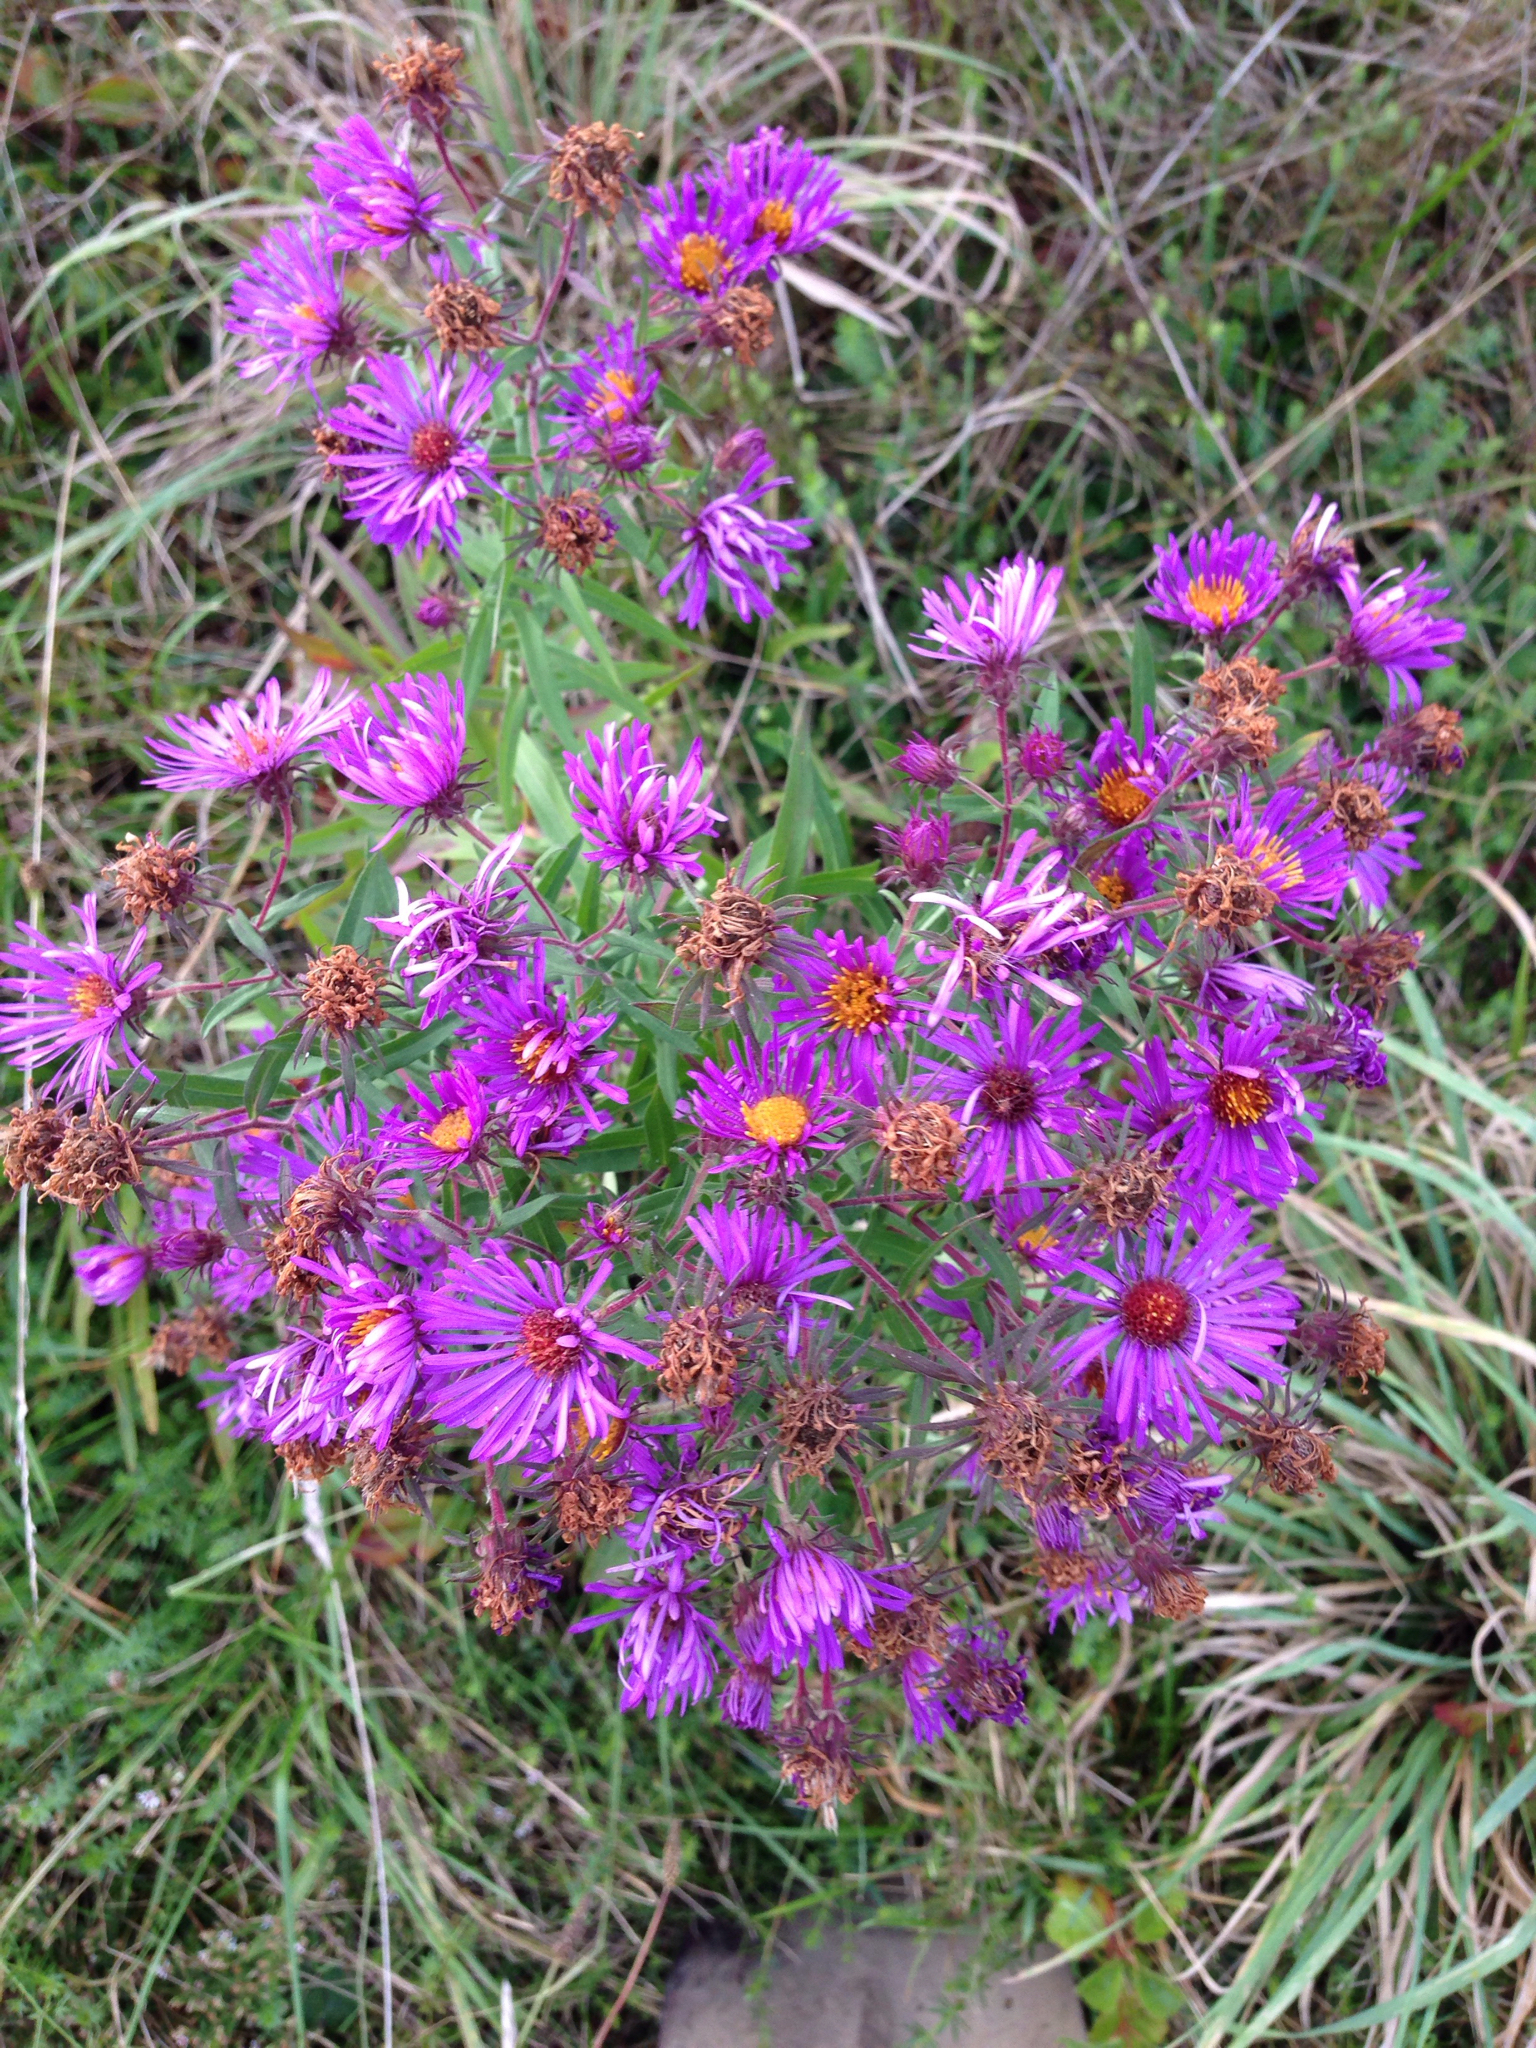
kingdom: Plantae
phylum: Tracheophyta
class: Magnoliopsida
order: Asterales
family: Asteraceae
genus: Symphyotrichum
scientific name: Symphyotrichum novae-angliae
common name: Michaelmas daisy
